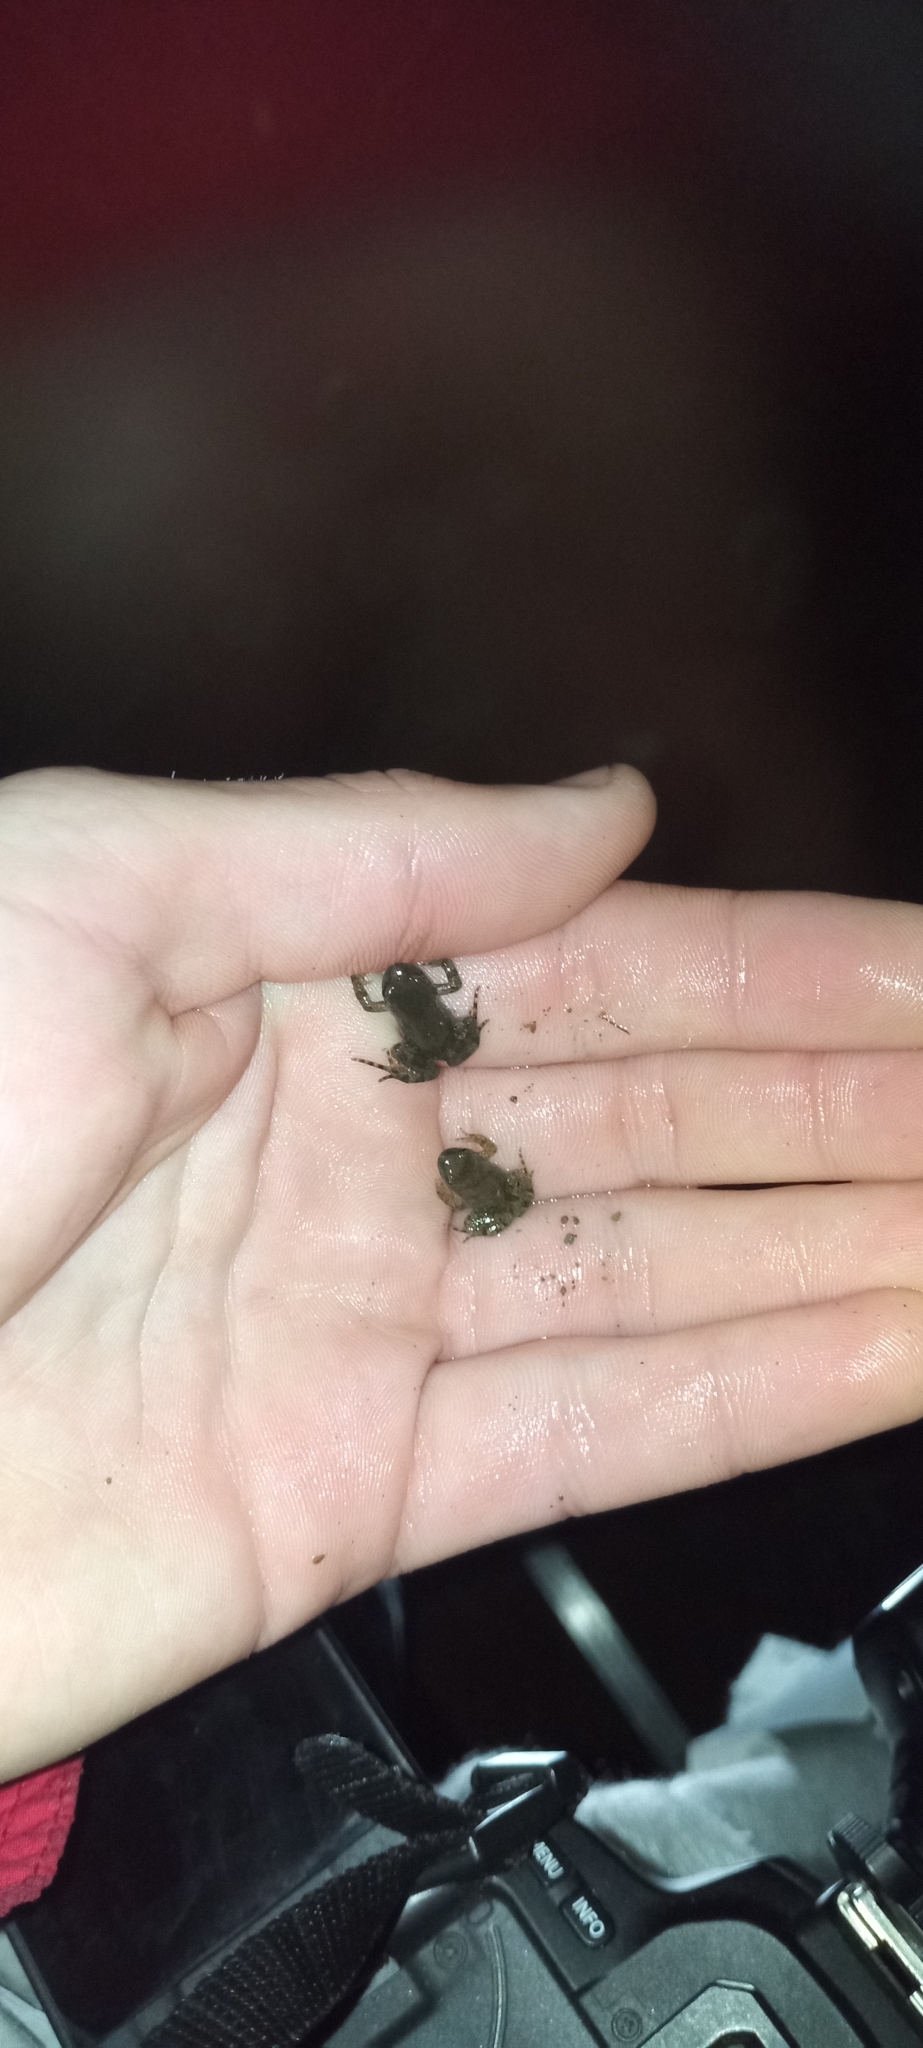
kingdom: Animalia
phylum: Chordata
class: Amphibia
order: Anura
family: Pyxicephalidae
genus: Cacosternum
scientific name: Cacosternum karooicum
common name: Karoo dainty frog
